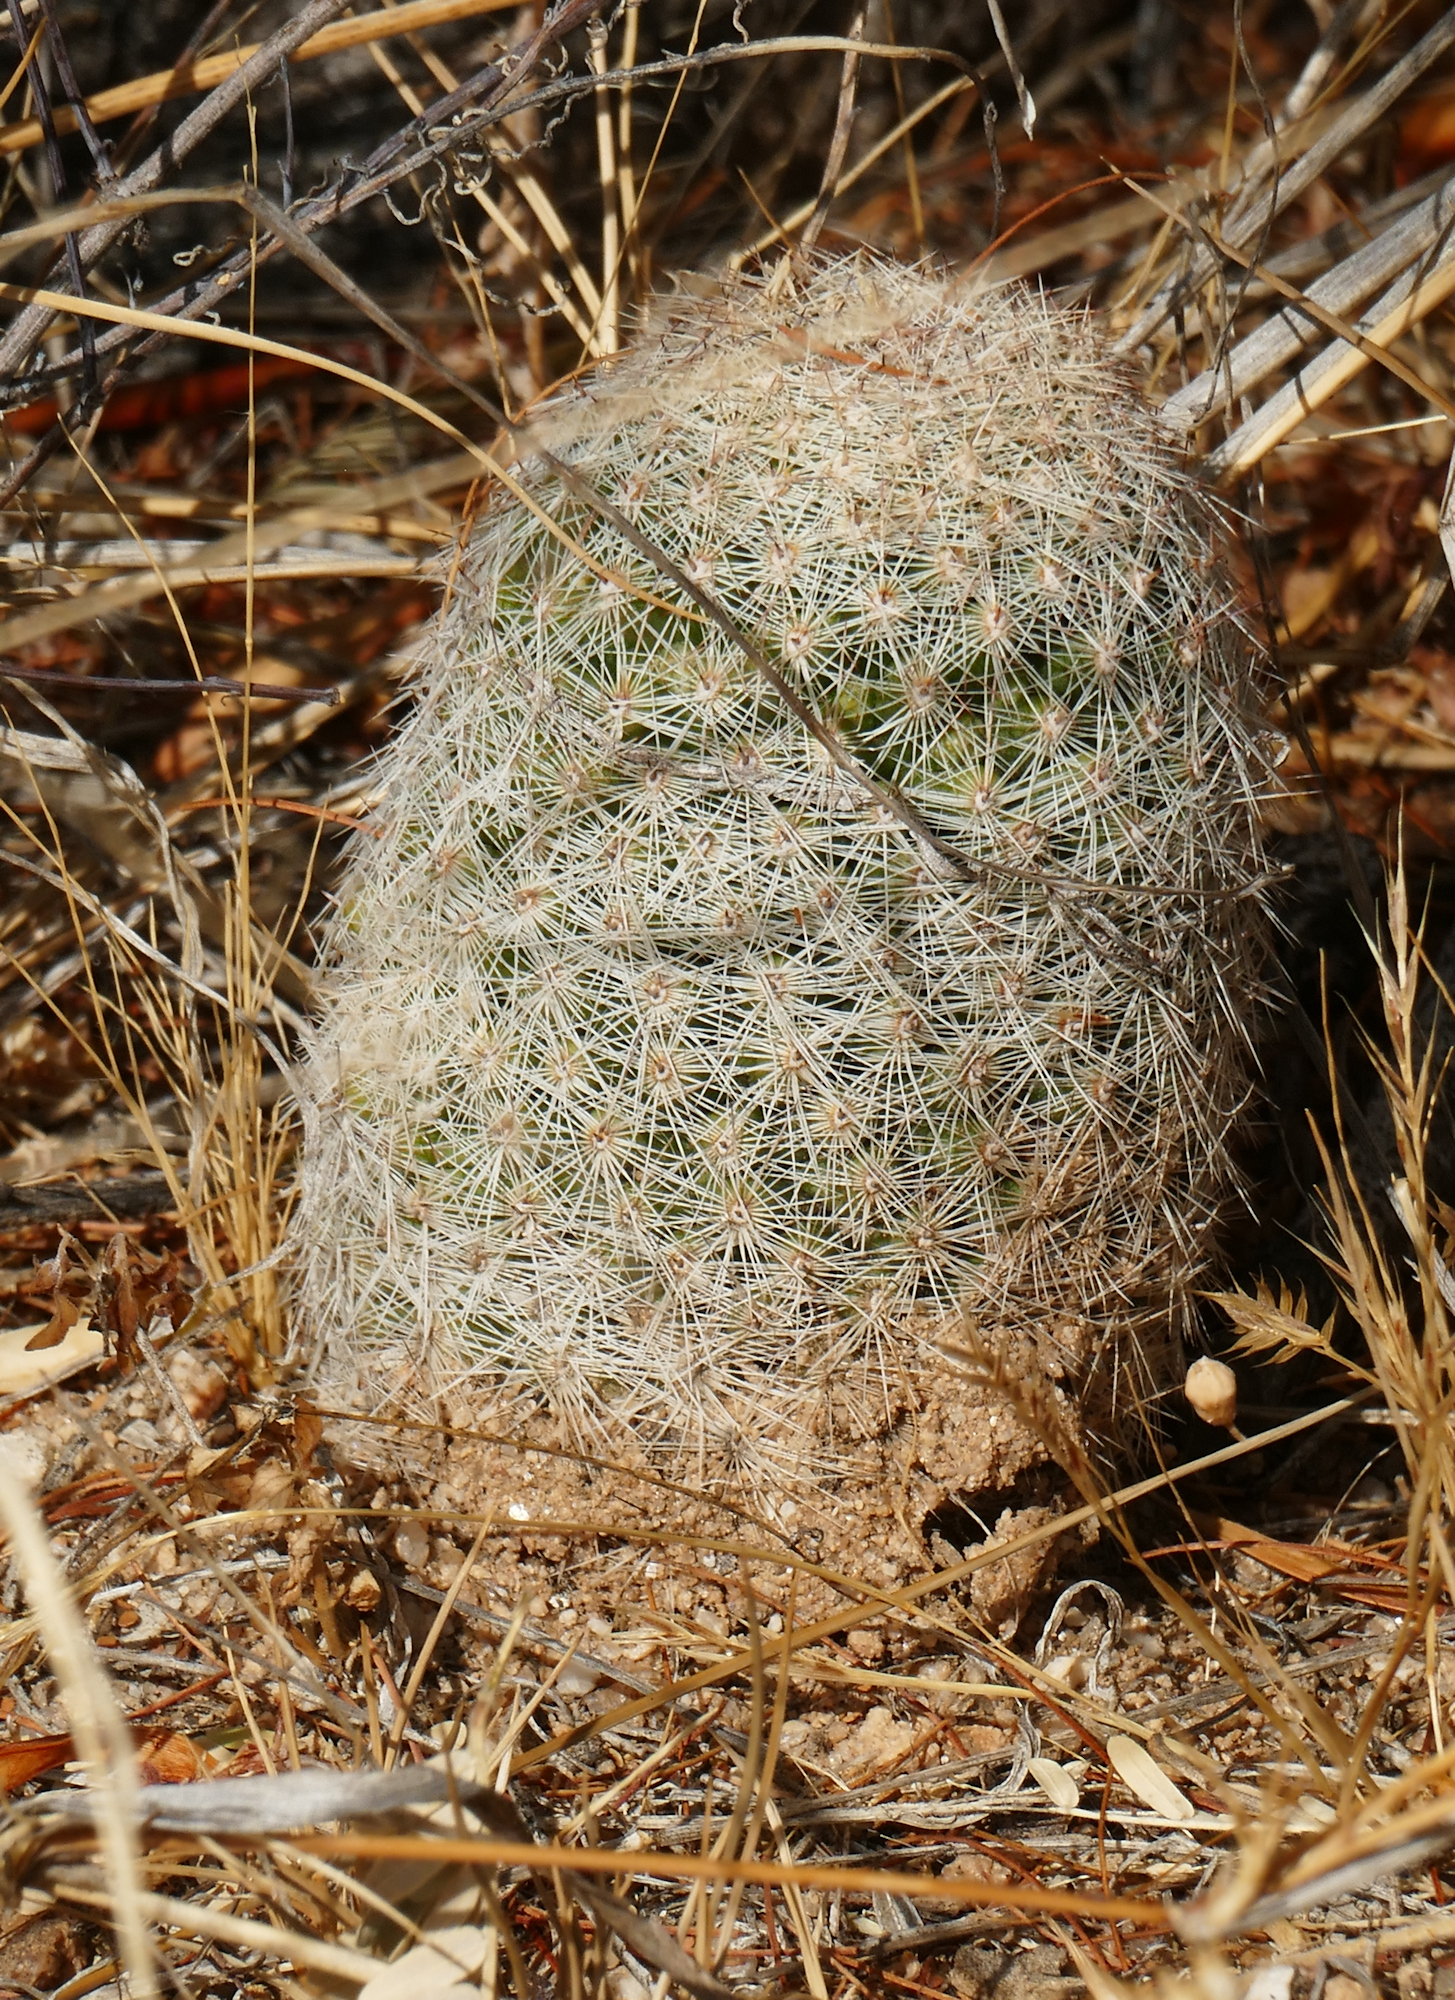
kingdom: Plantae
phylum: Tracheophyta
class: Magnoliopsida
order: Caryophyllales
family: Cactaceae
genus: Cochemiea
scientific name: Cochemiea grahamii
